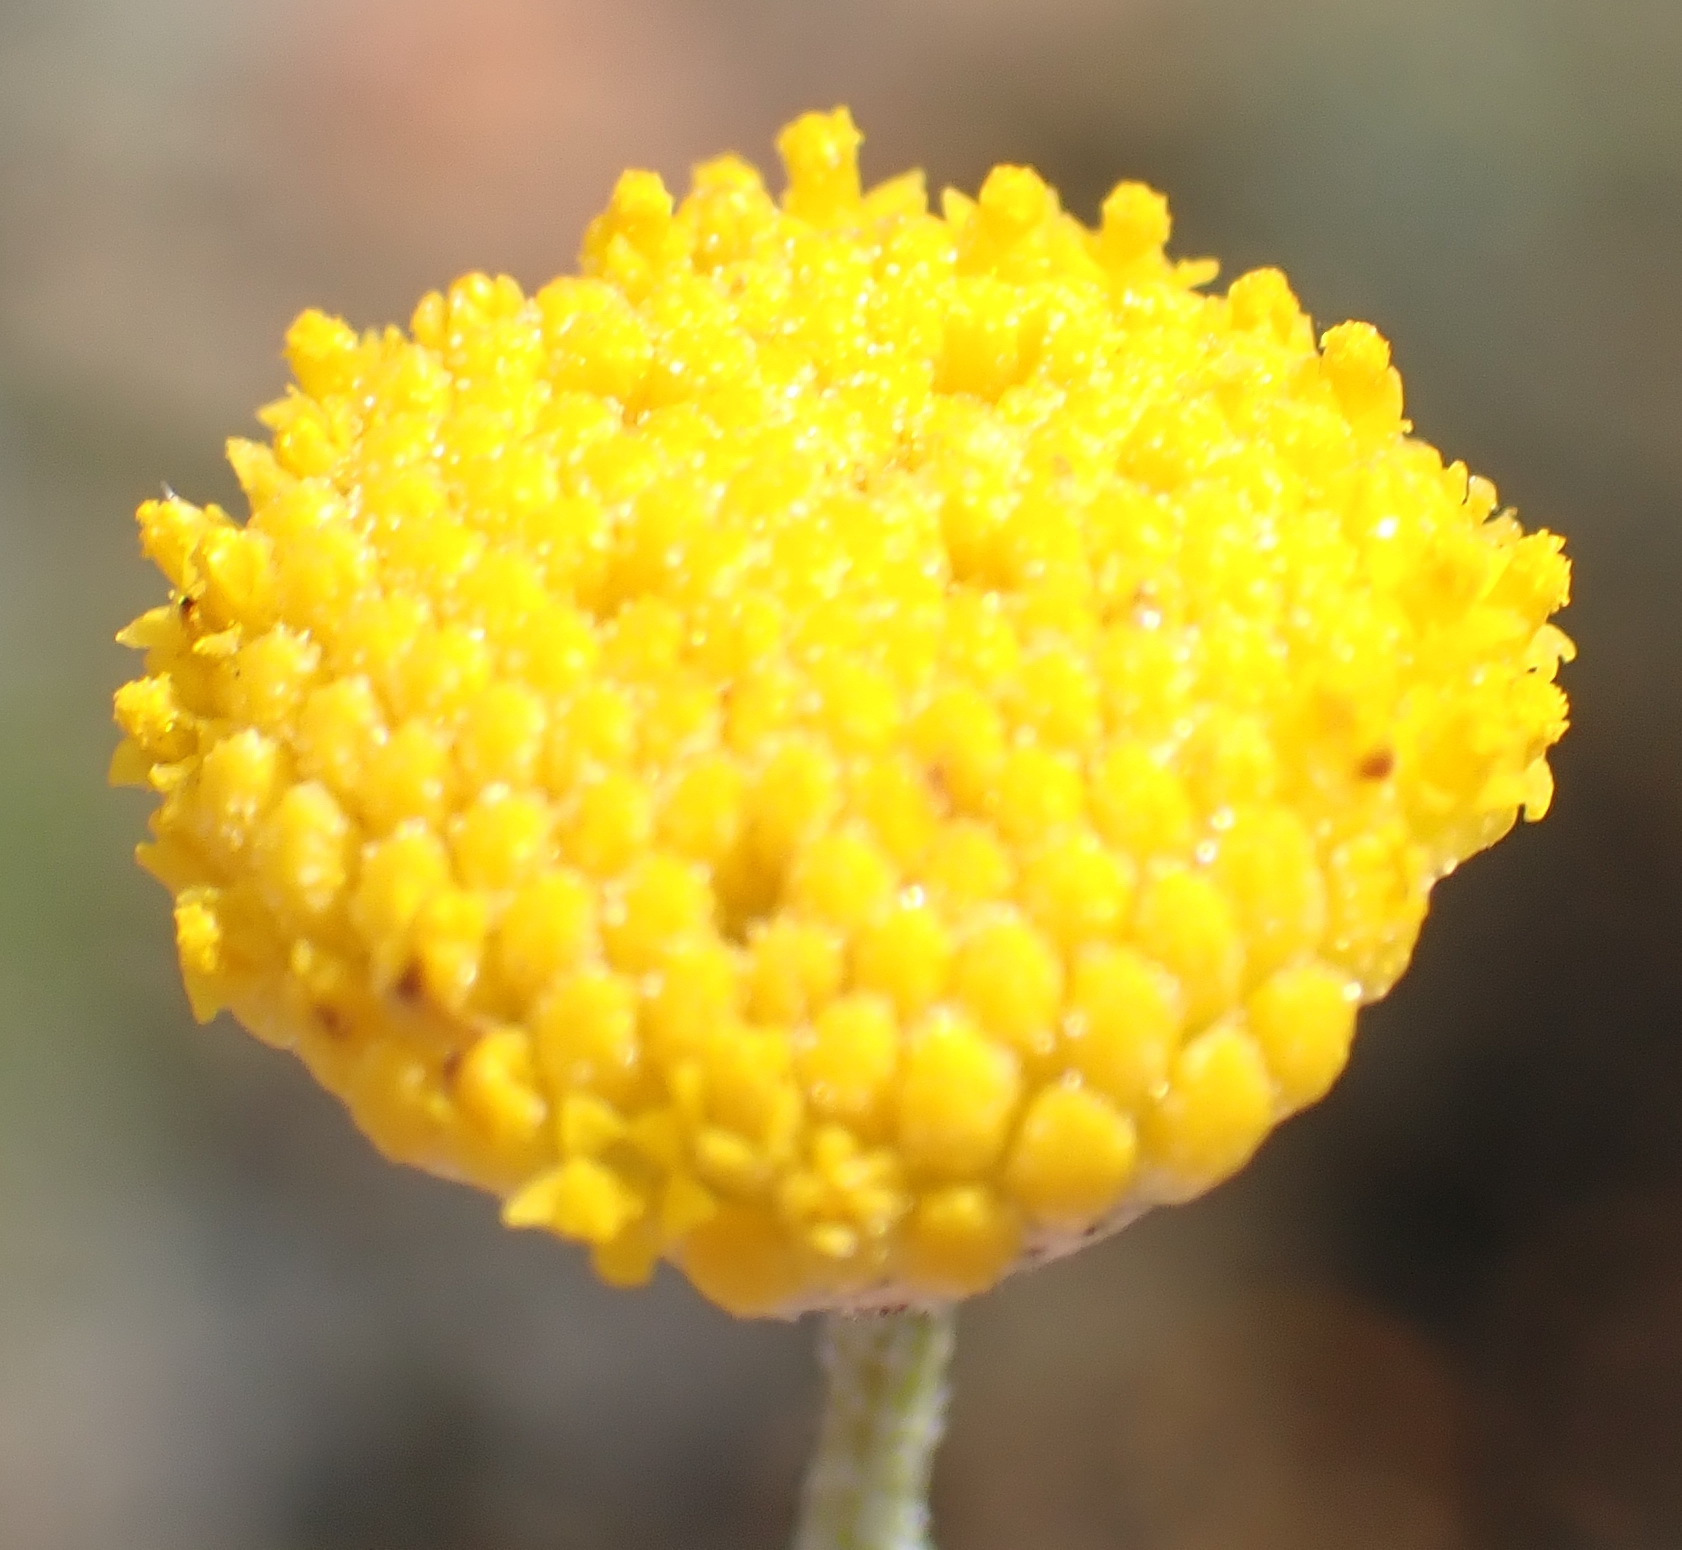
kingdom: Plantae
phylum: Tracheophyta
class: Magnoliopsida
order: Asterales
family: Asteraceae
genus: Pentzia
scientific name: Pentzia incana
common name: African sheepbush
